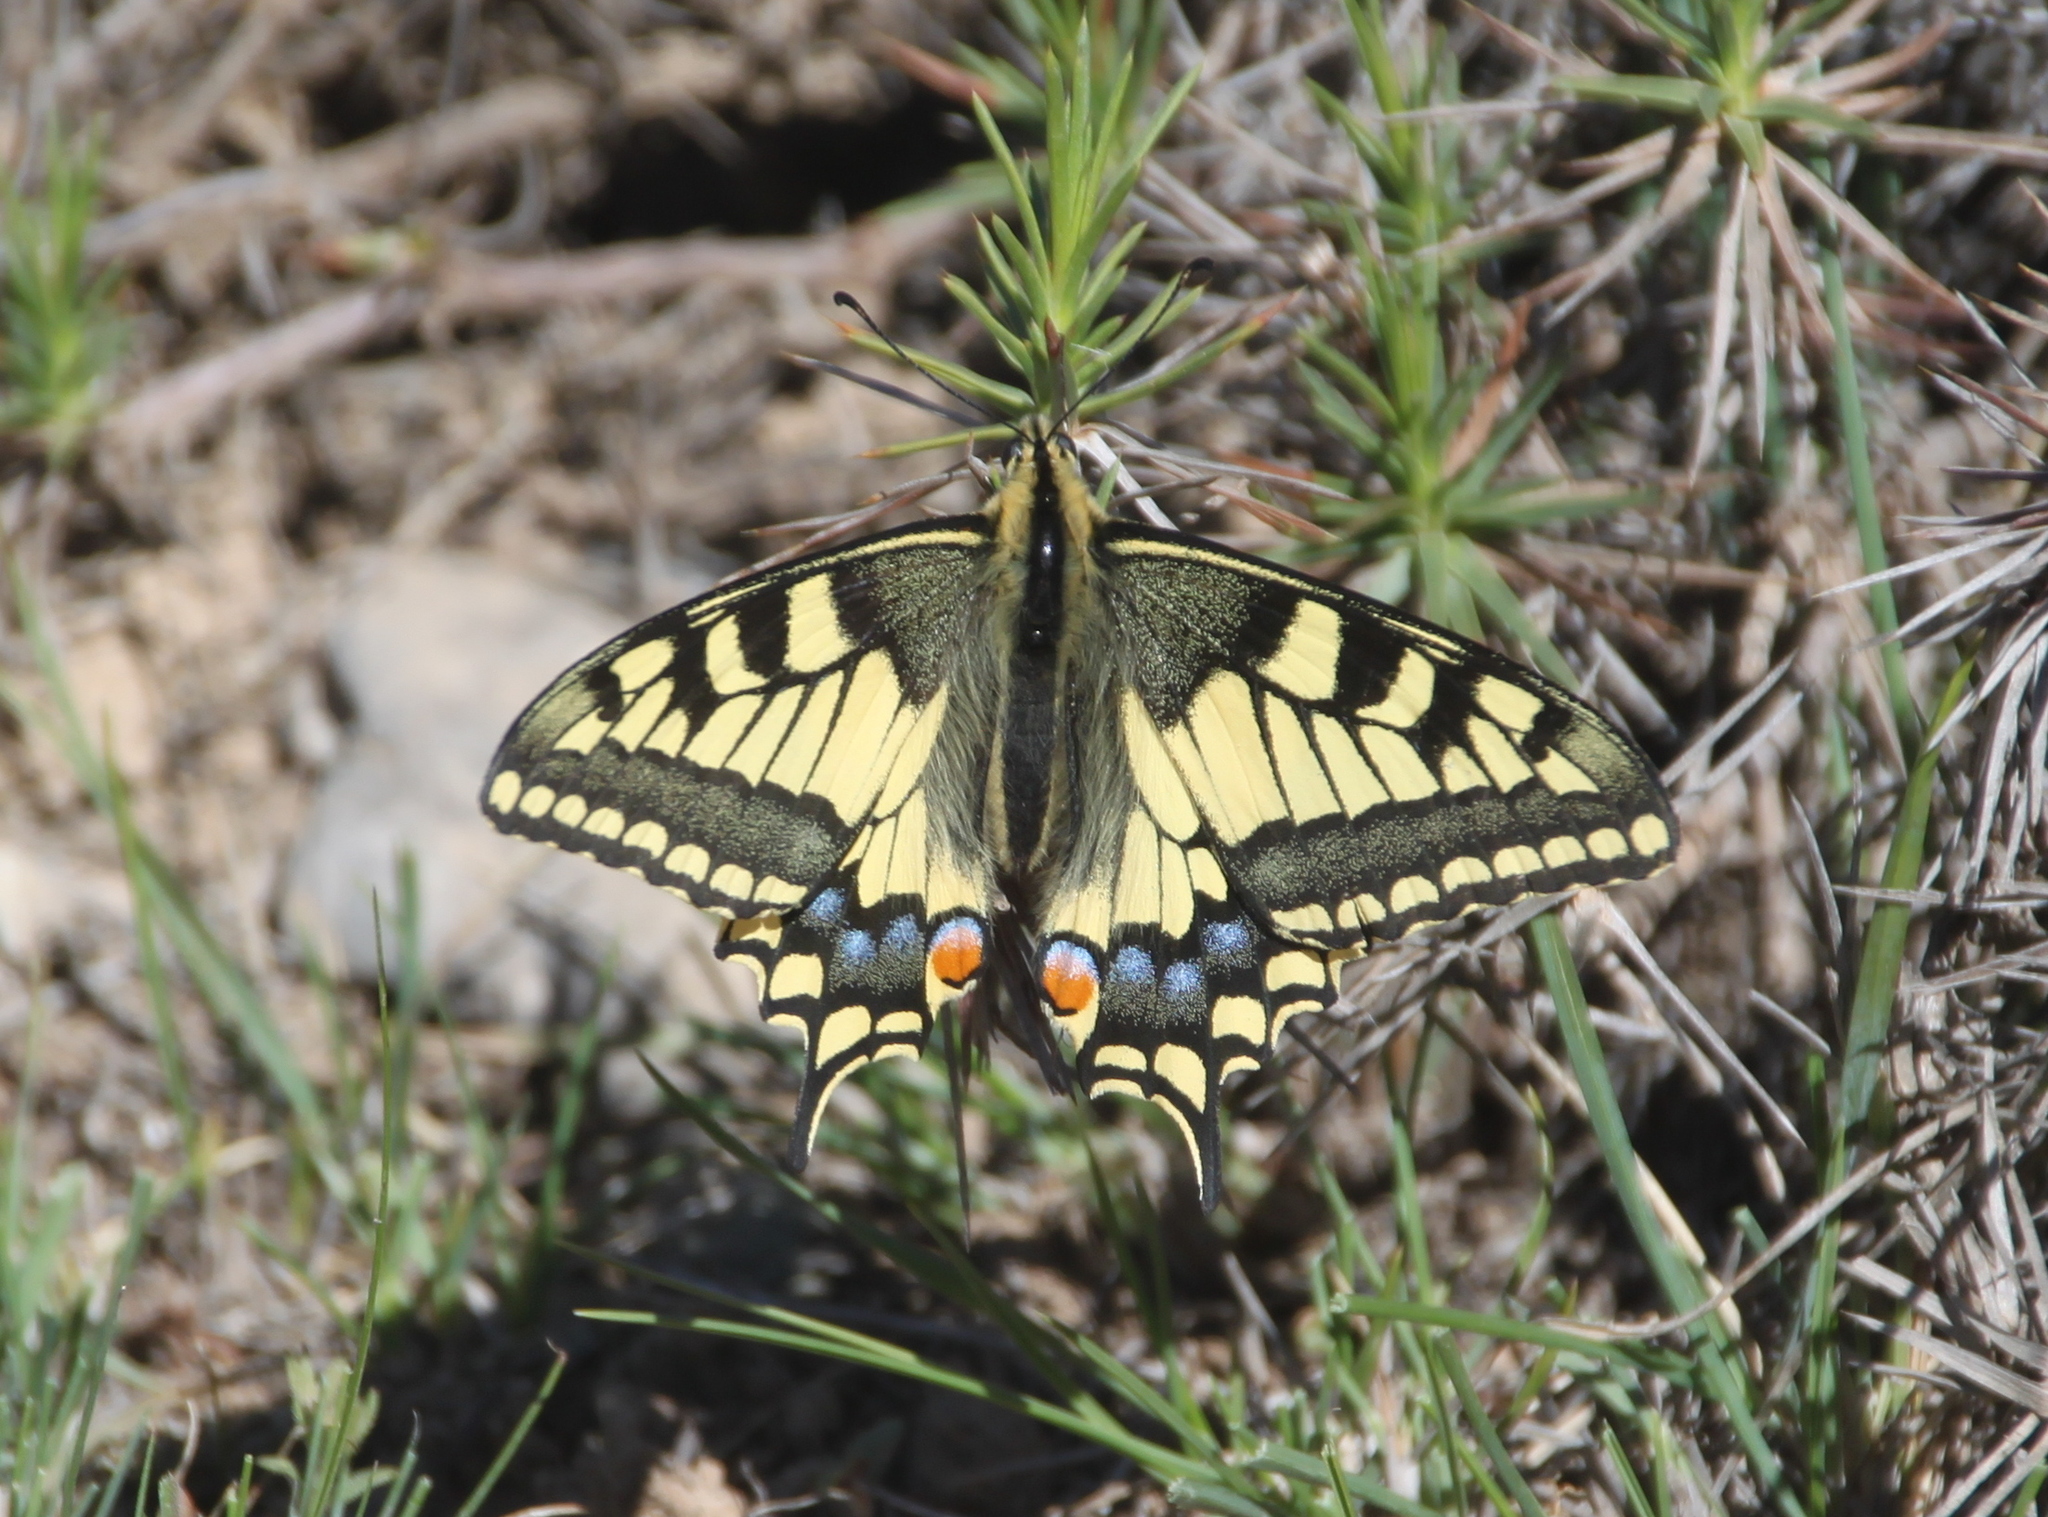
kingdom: Animalia
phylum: Arthropoda
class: Insecta
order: Lepidoptera
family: Papilionidae
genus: Papilio
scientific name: Papilio machaon
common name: Swallowtail
